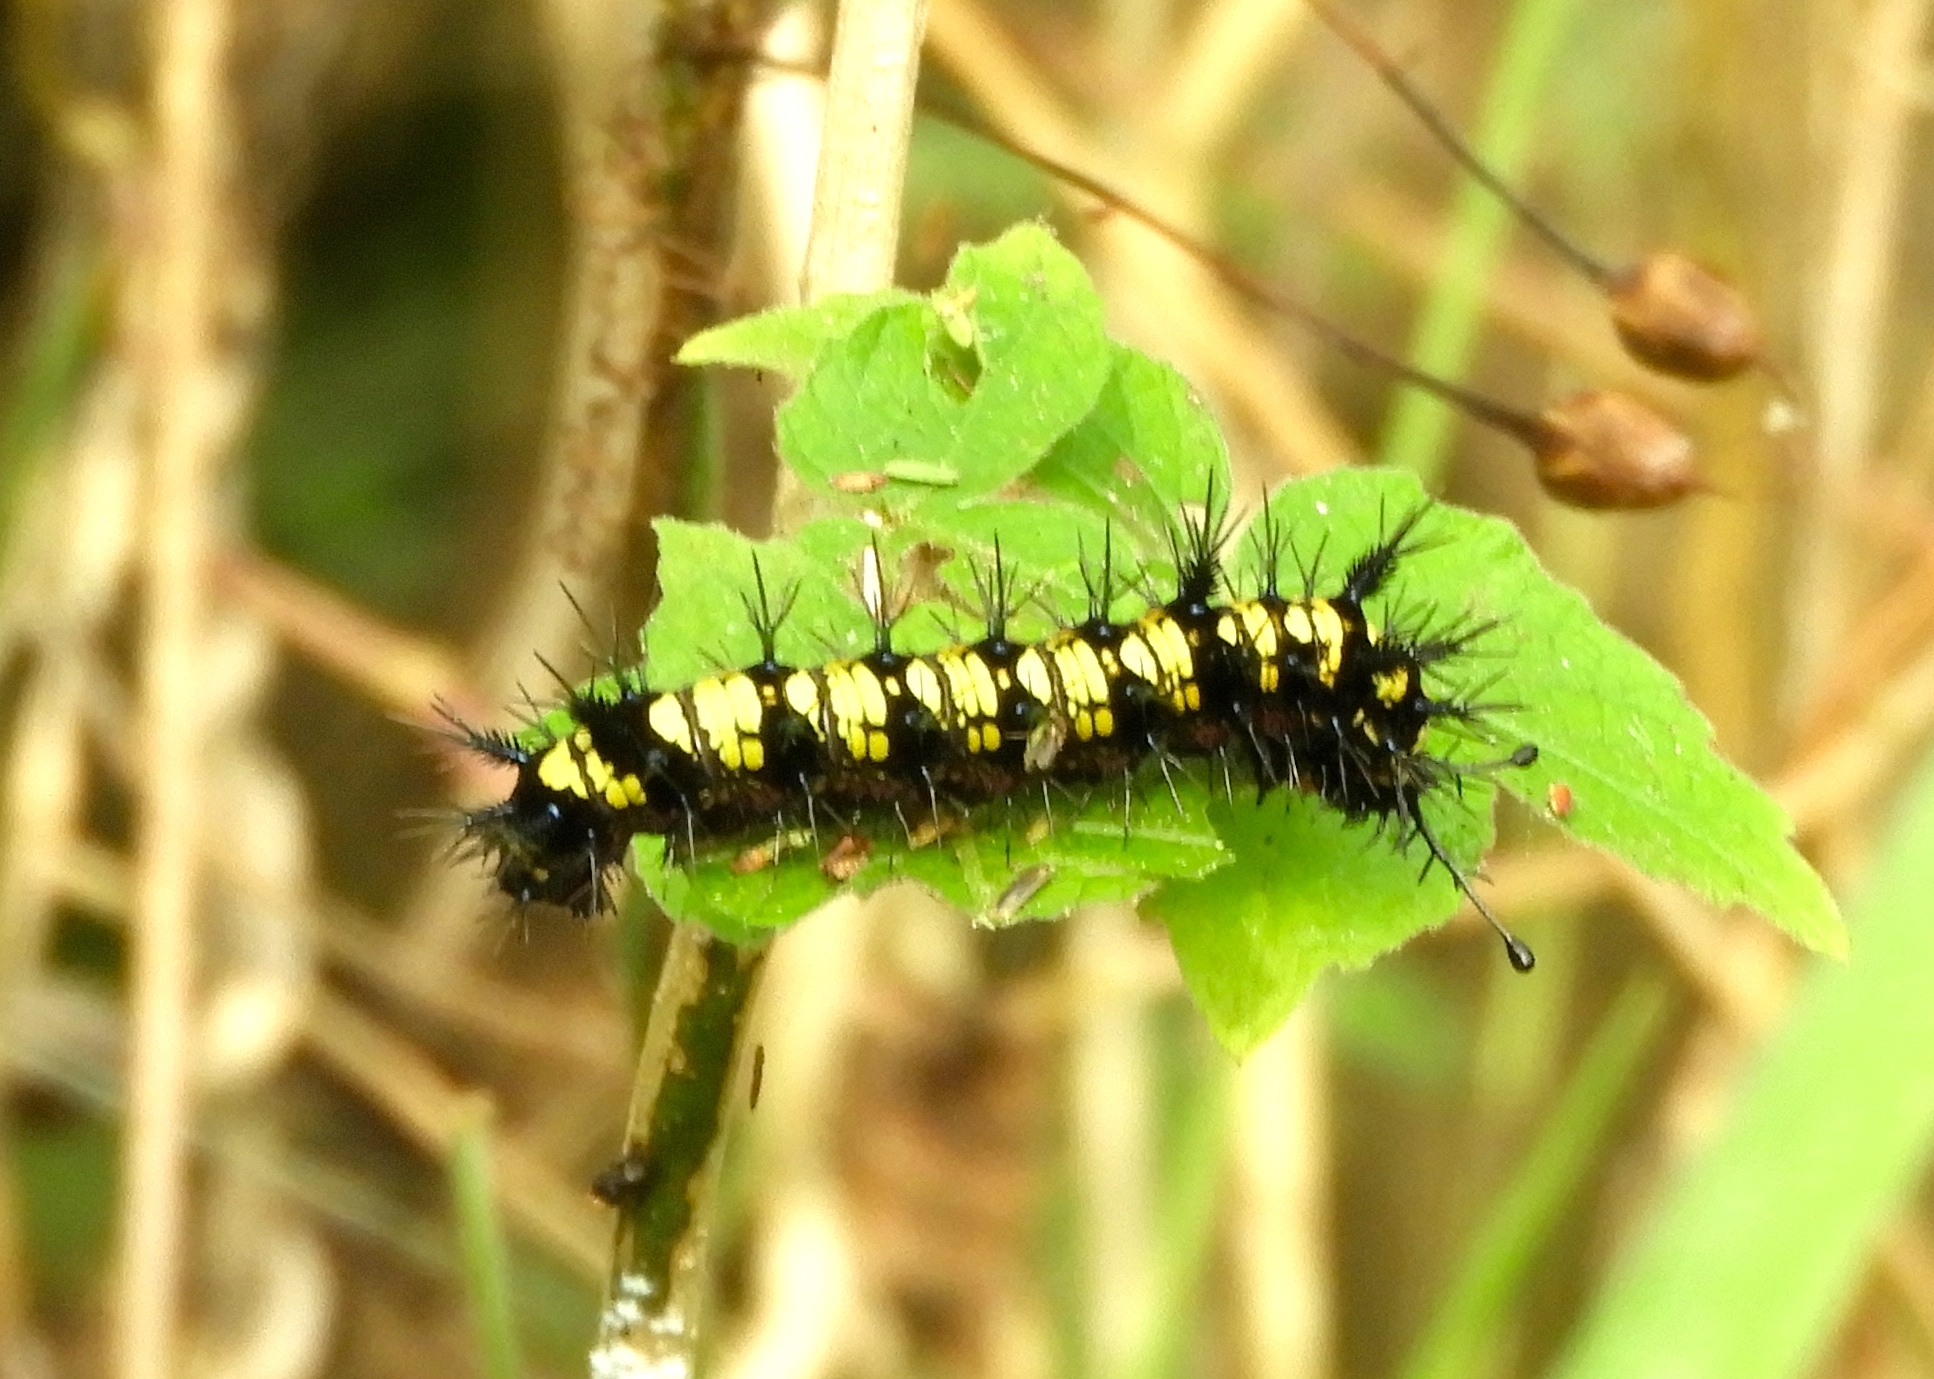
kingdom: Animalia
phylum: Arthropoda
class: Insecta
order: Lepidoptera
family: Nymphalidae
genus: Hamadryas
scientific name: Hamadryas guatemalena
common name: Guatemalan cracker
